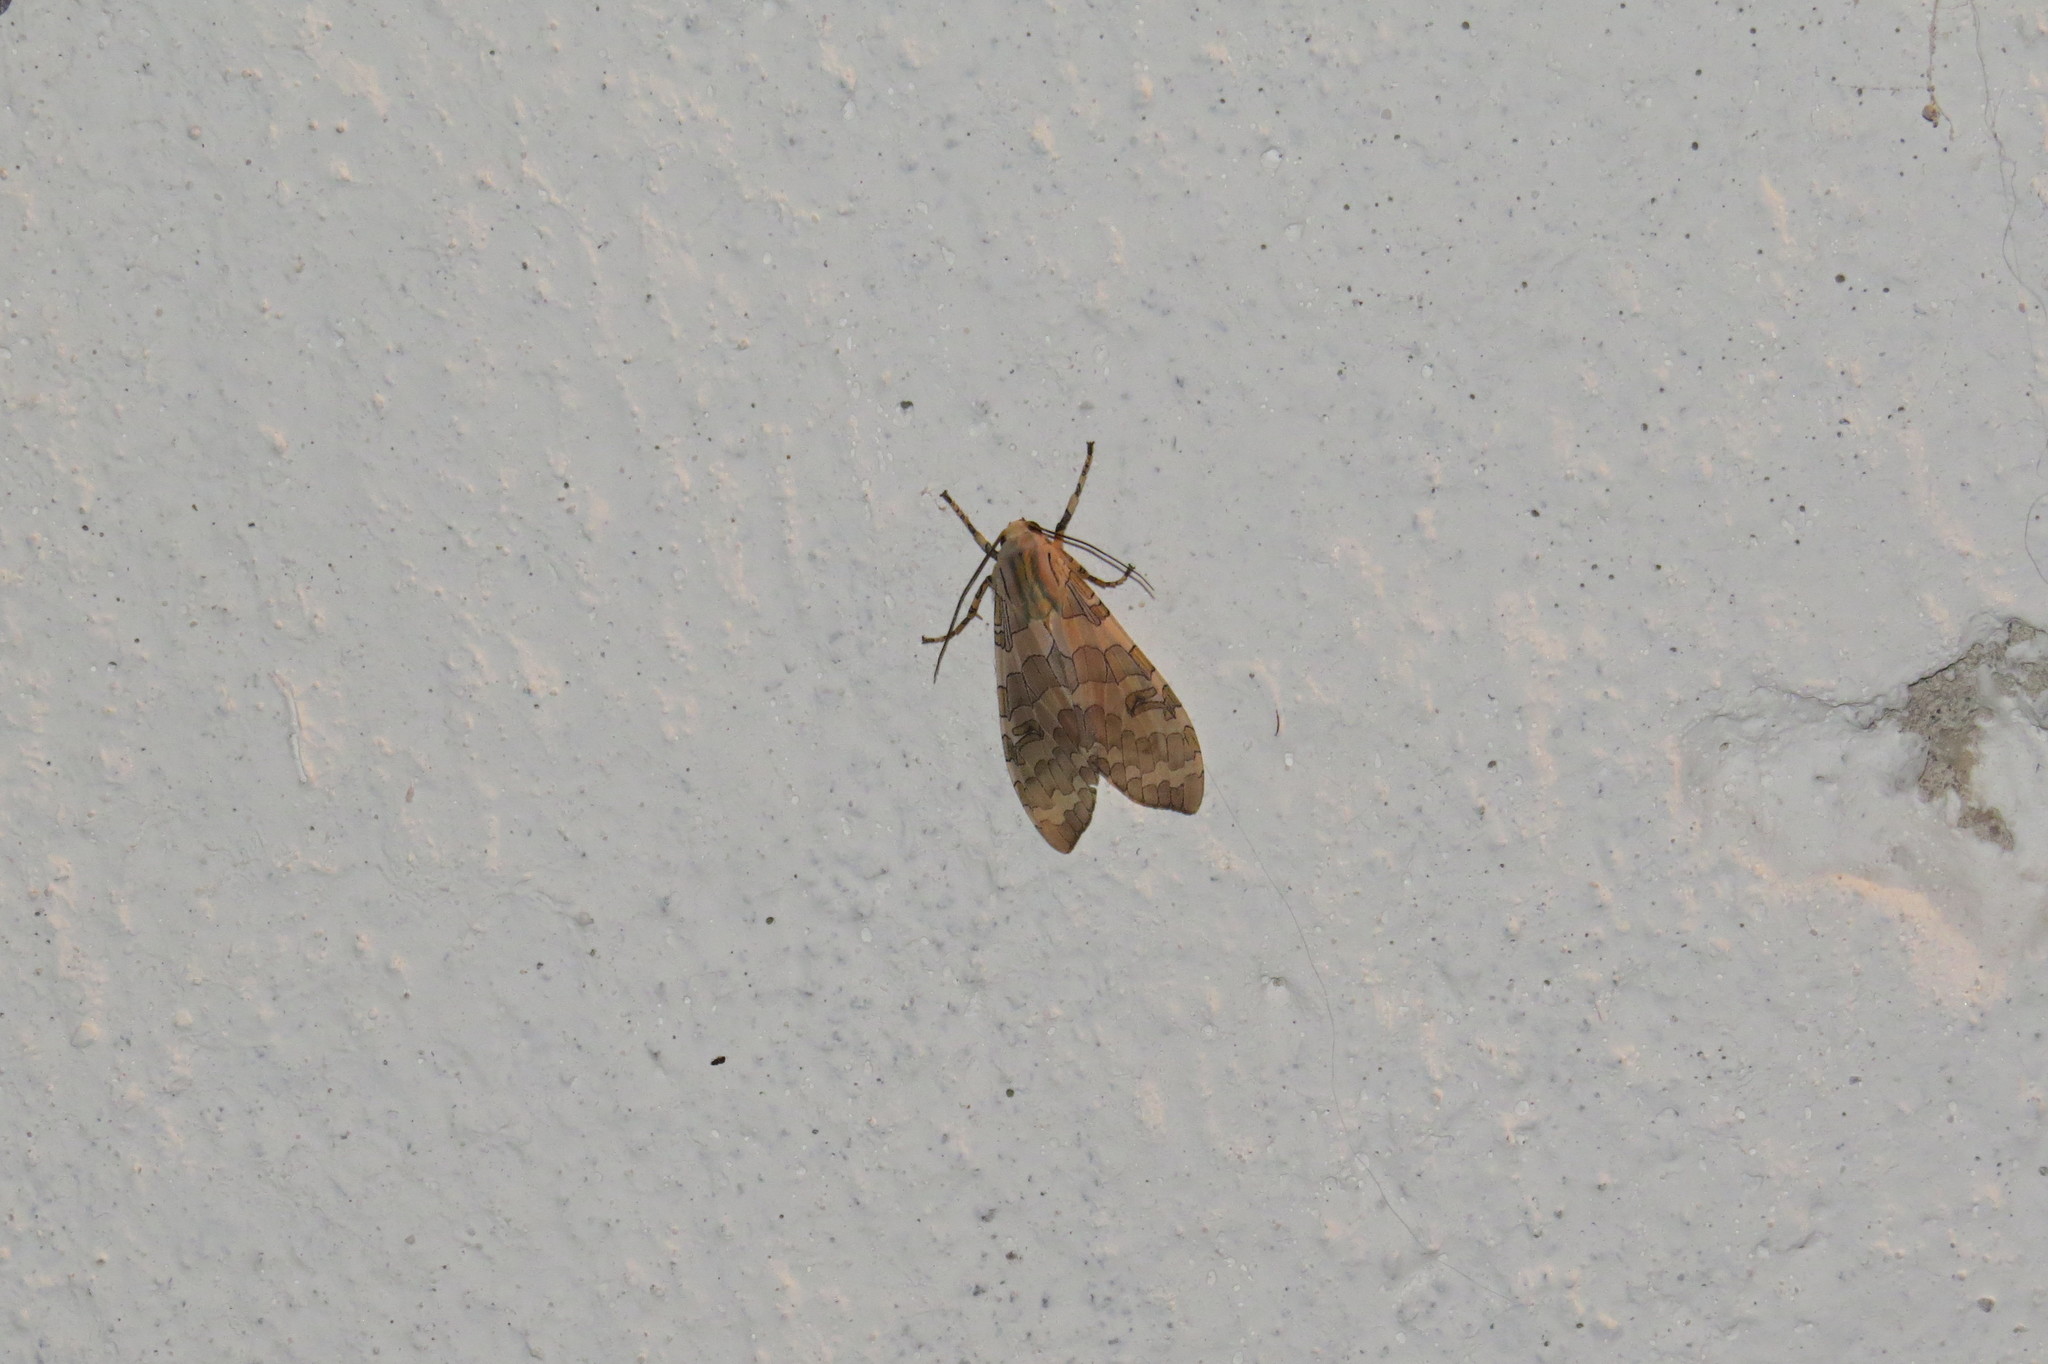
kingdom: Animalia
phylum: Arthropoda
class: Insecta
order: Lepidoptera
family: Erebidae
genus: Halysidota
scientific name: Halysidota tucumanicola
